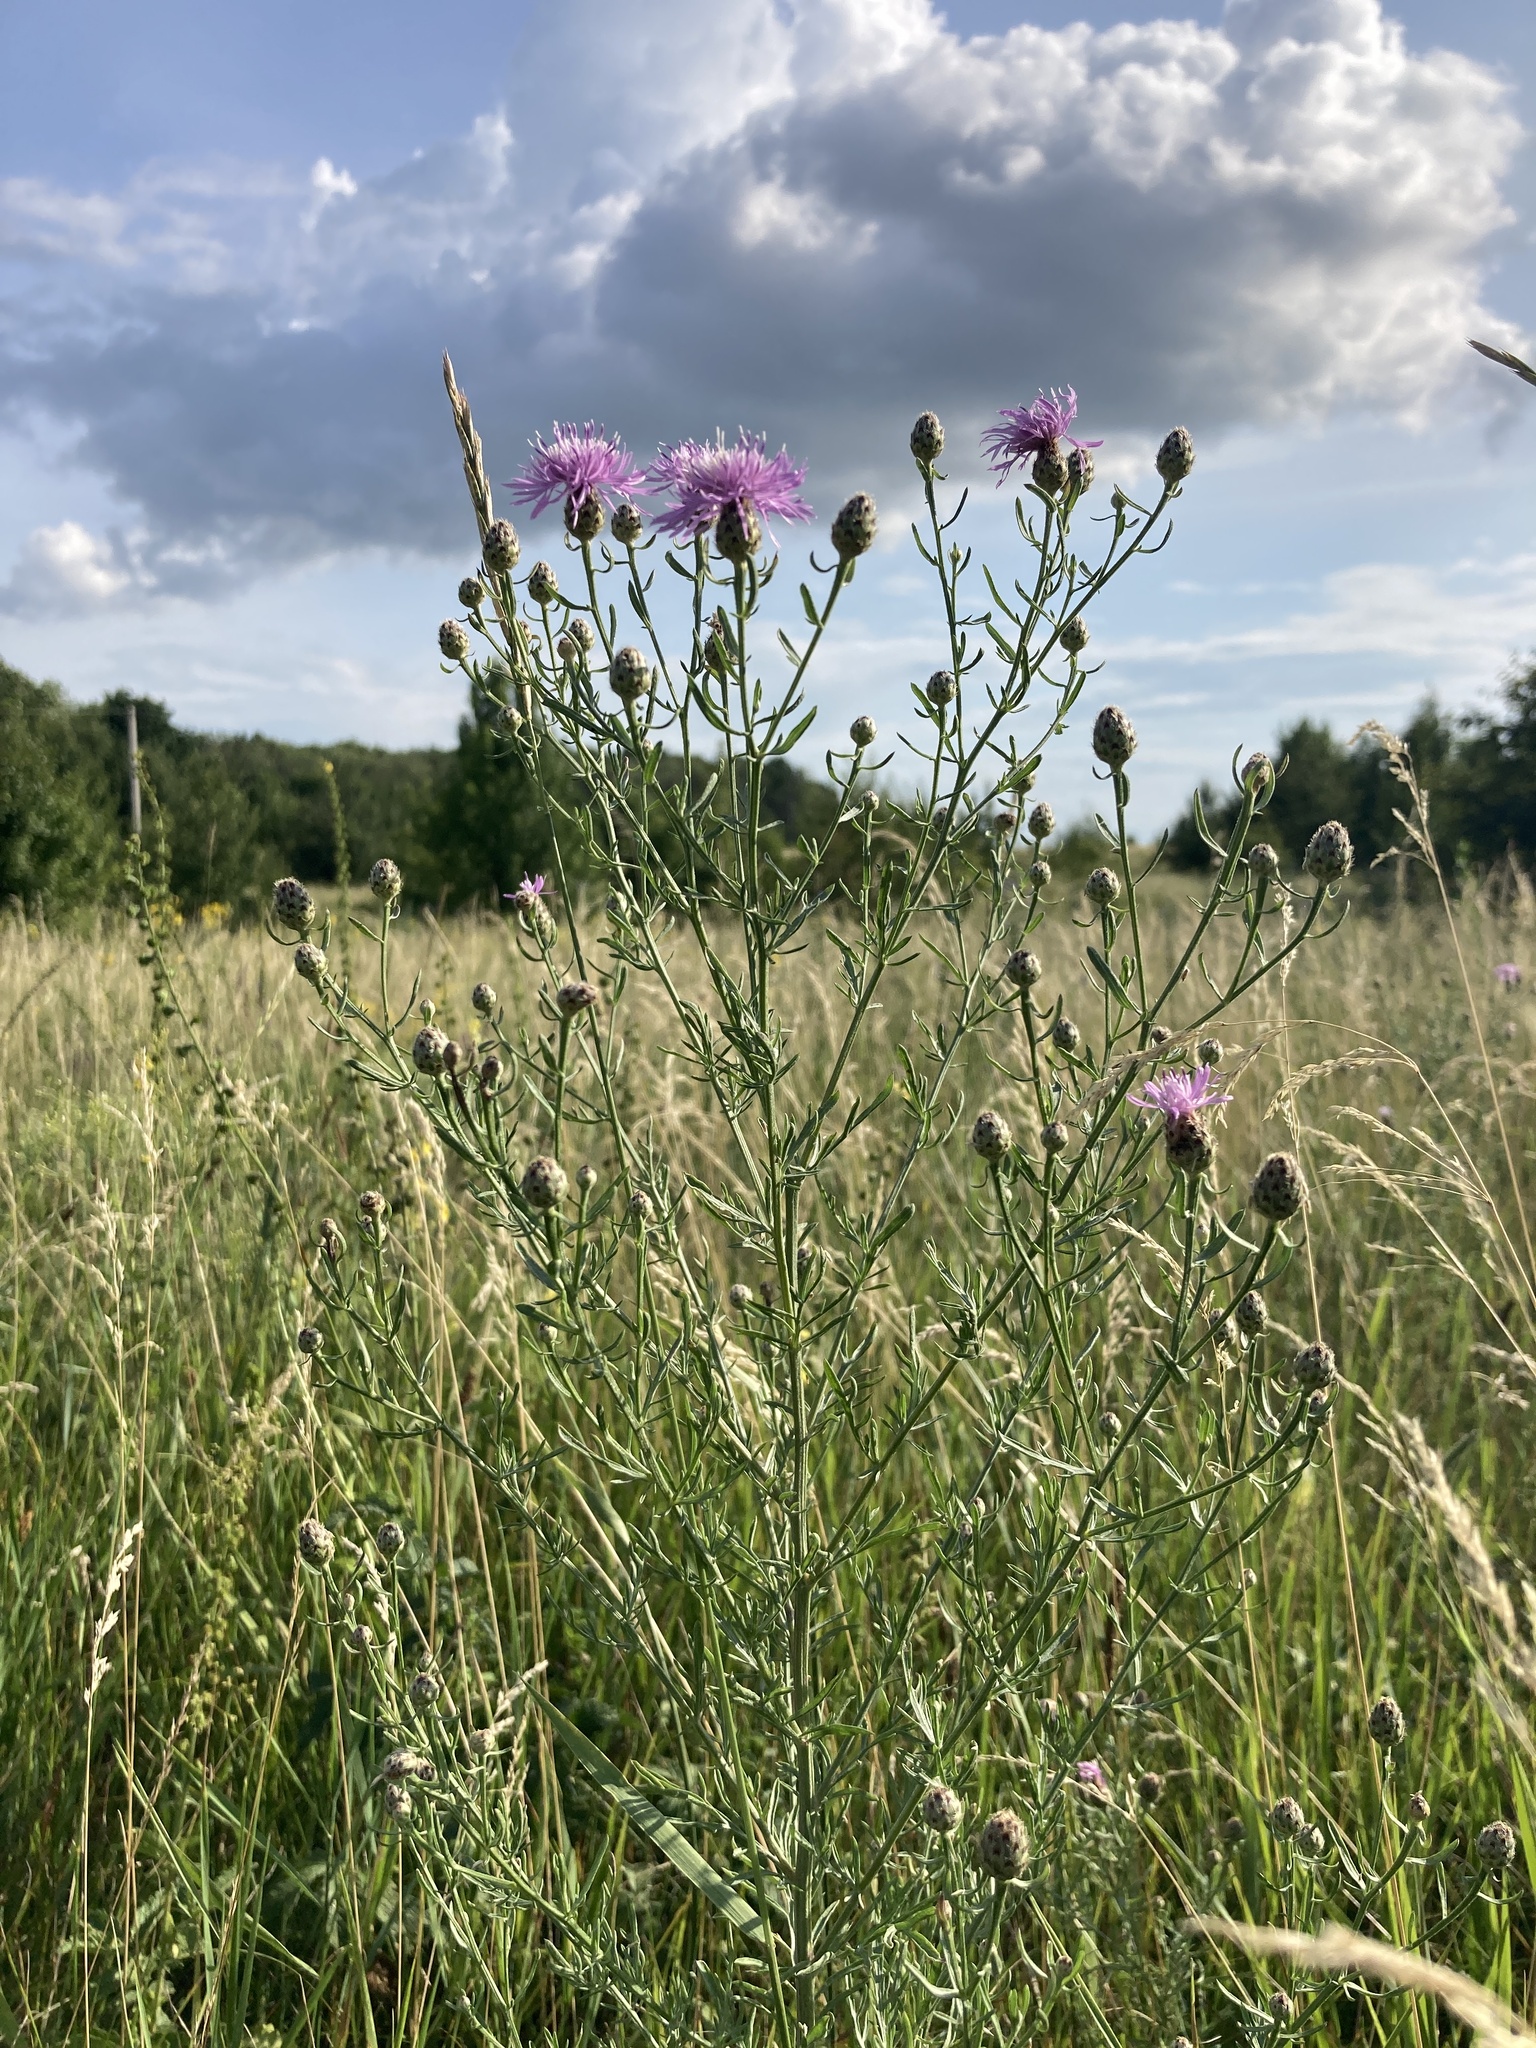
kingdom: Plantae
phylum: Tracheophyta
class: Magnoliopsida
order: Asterales
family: Asteraceae
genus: Centaurea
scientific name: Centaurea stoebe
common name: Spotted knapweed
